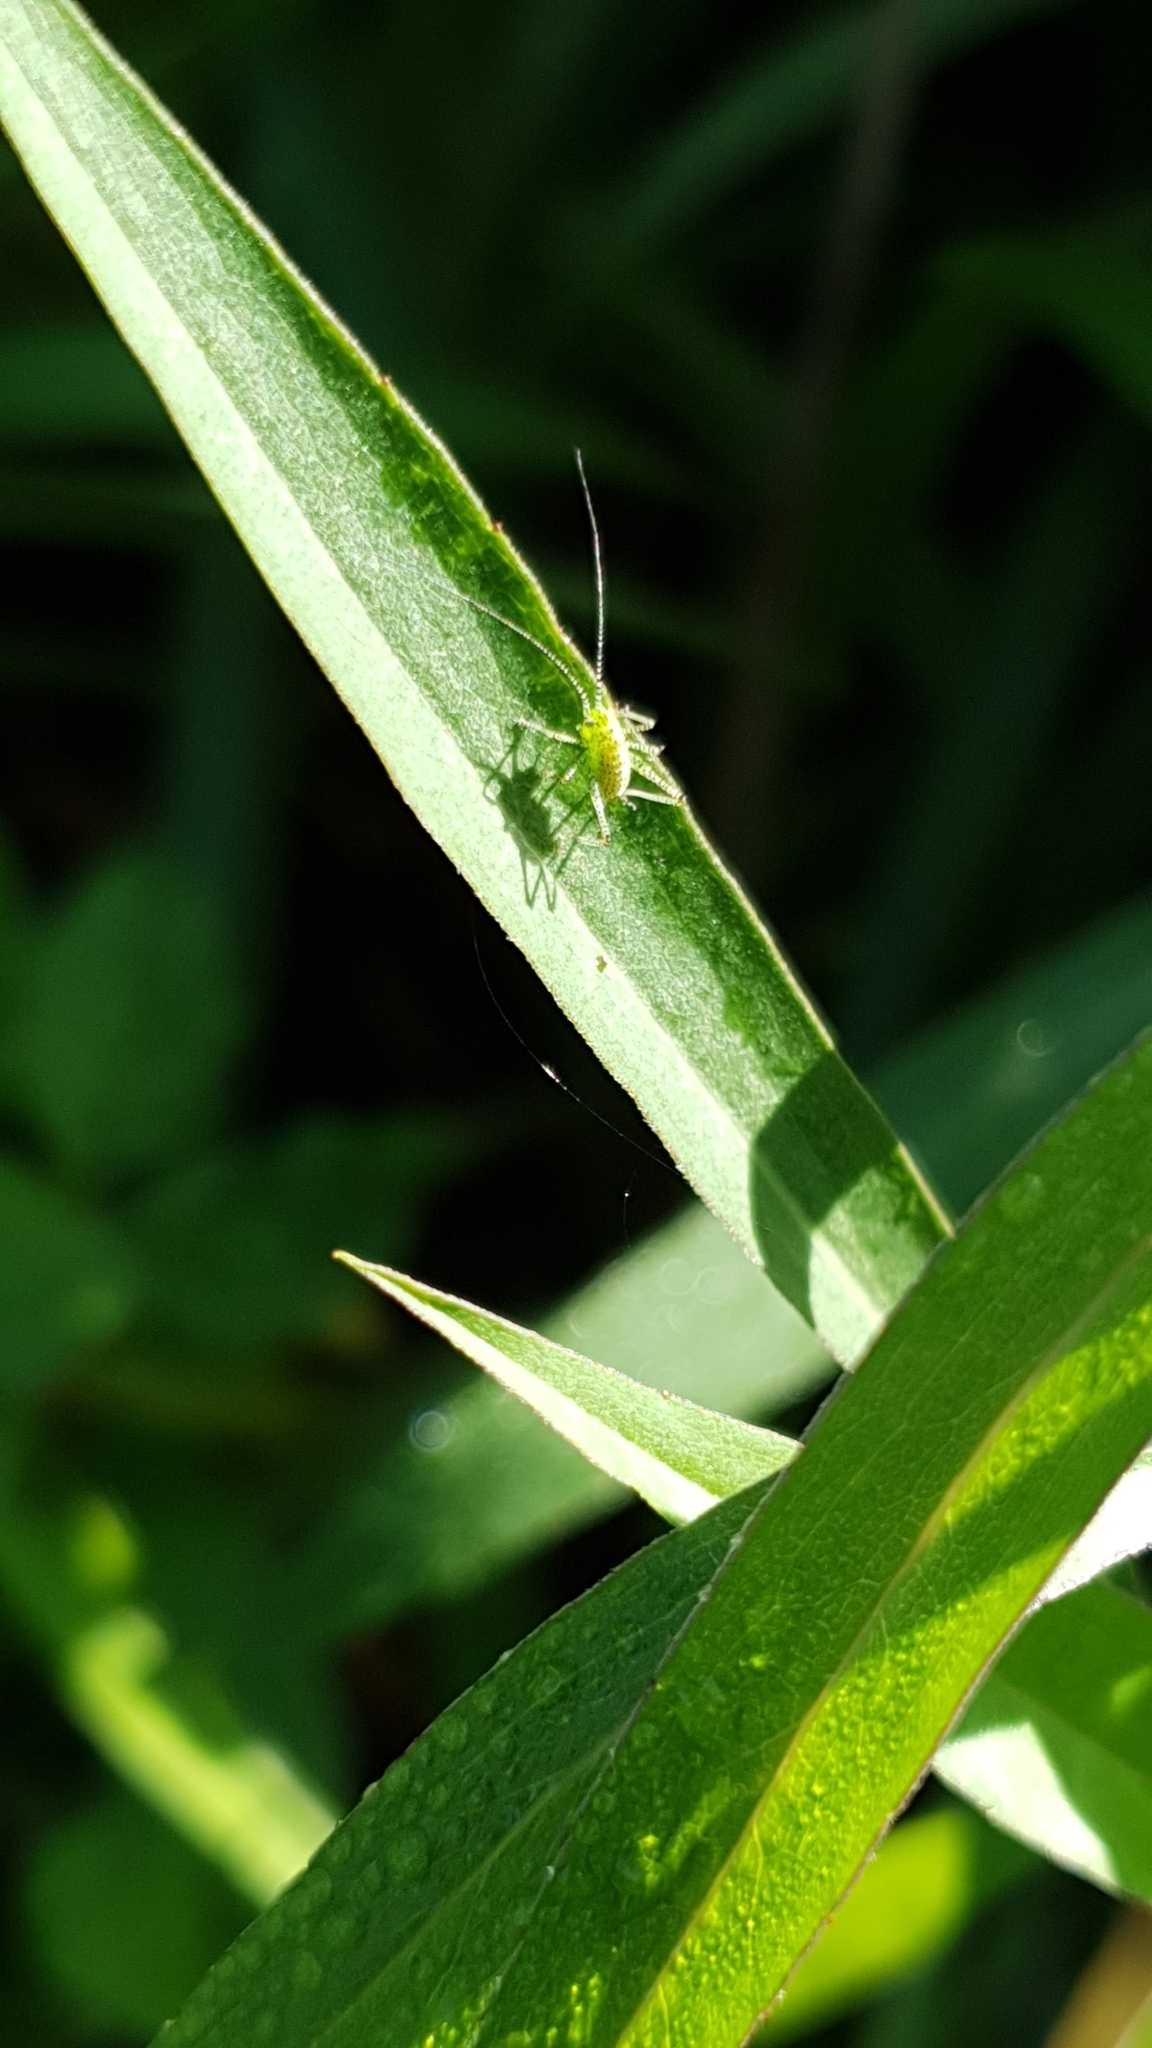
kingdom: Animalia
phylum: Arthropoda
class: Insecta
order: Orthoptera
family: Tettigoniidae
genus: Leptophyes
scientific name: Leptophyes punctatissima
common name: Speckled bush-cricket
